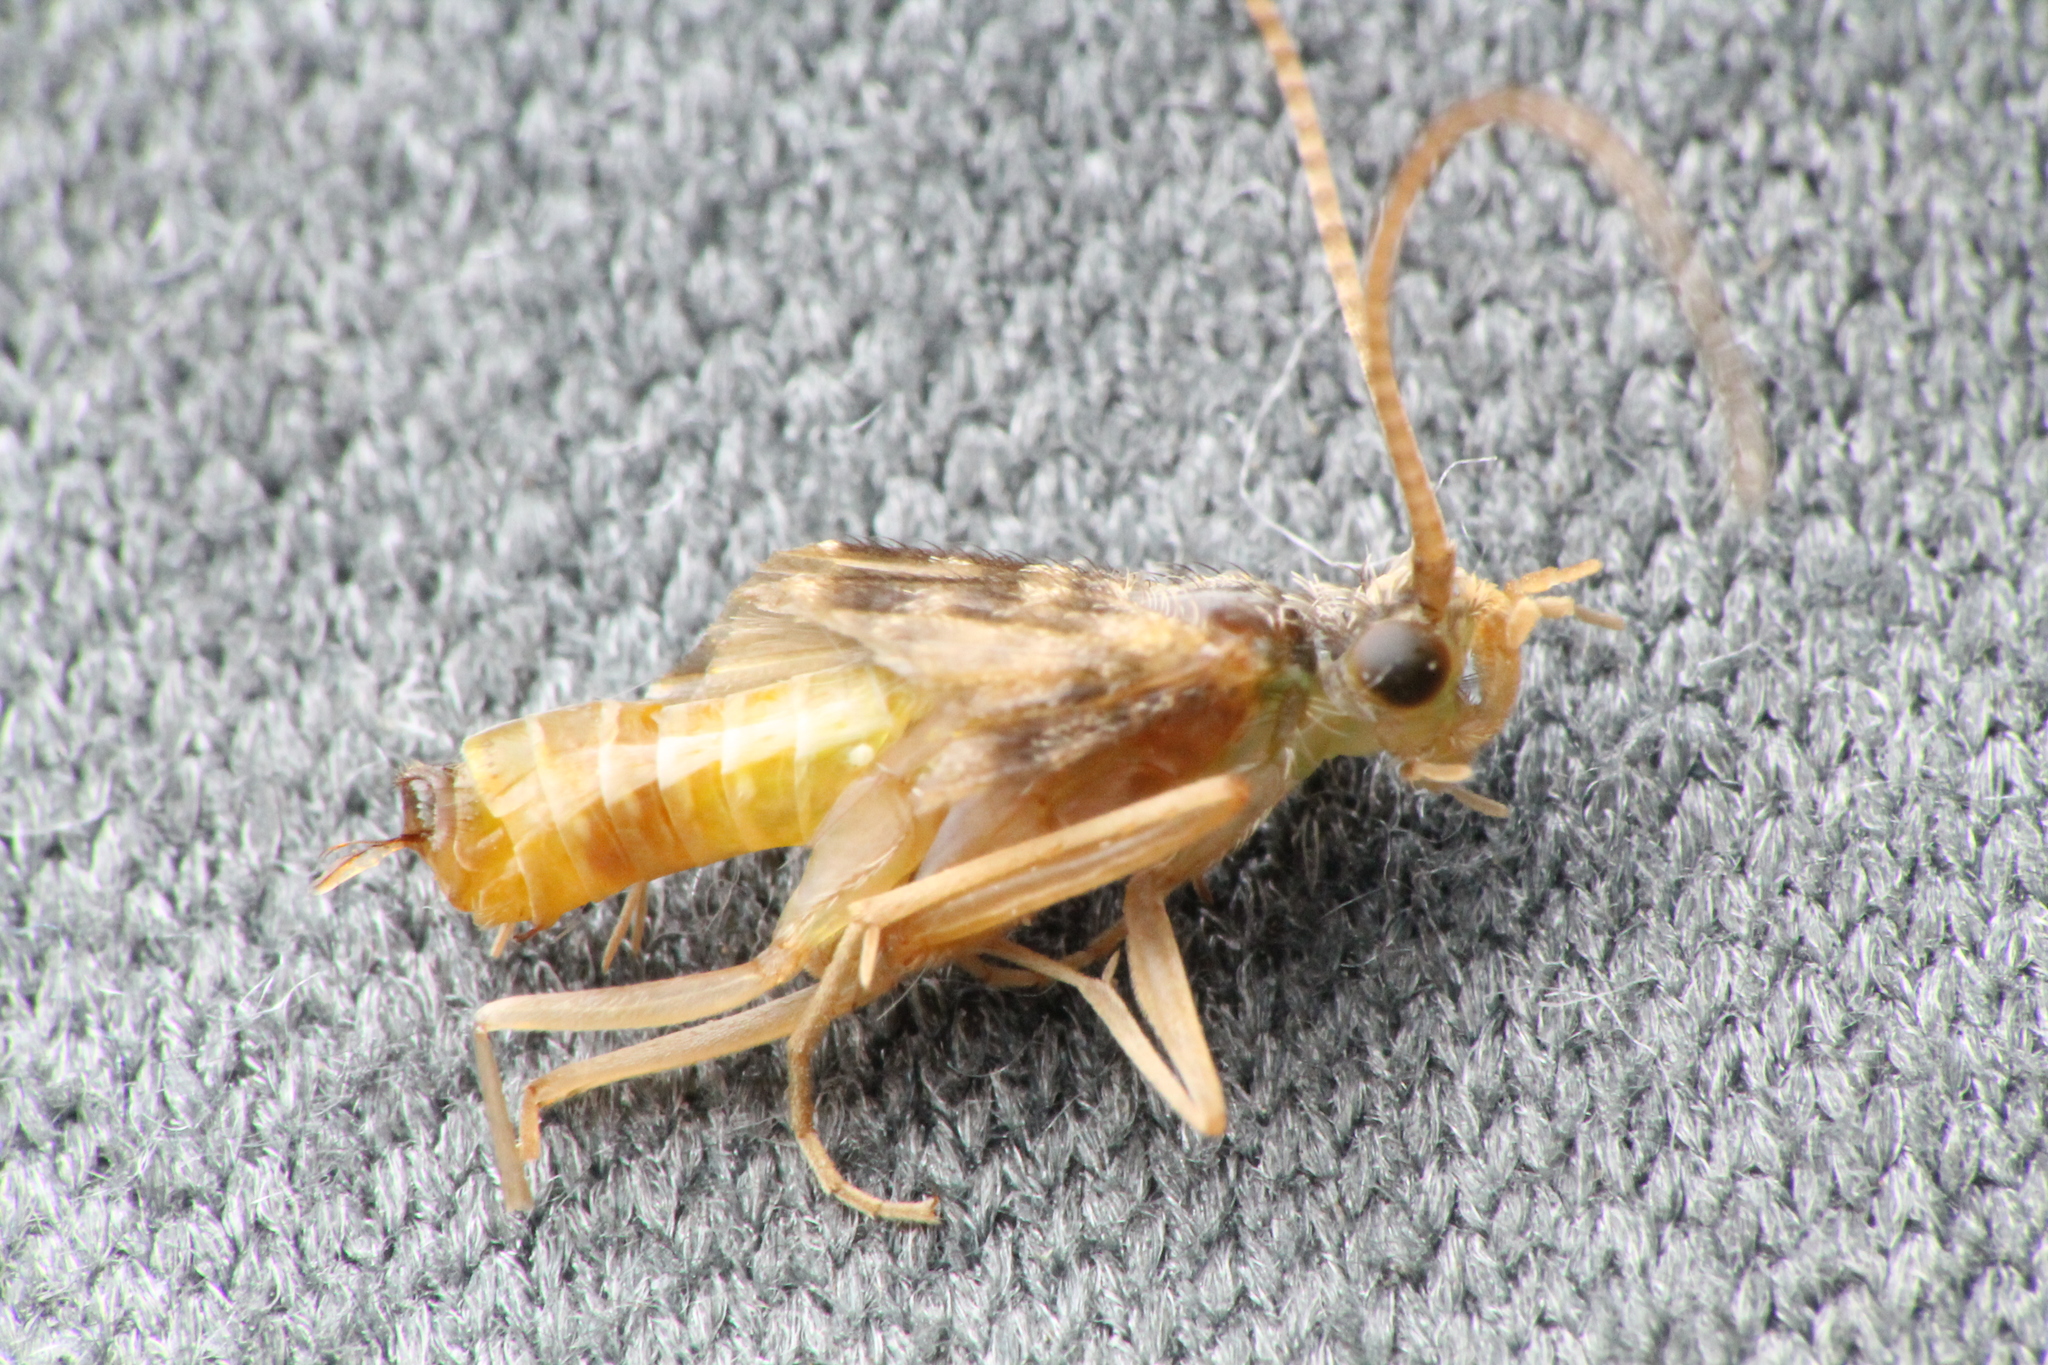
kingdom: Animalia
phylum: Arthropoda
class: Insecta
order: Trichoptera
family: Chathamiidae
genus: Philanisus
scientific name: Philanisus plebeius
